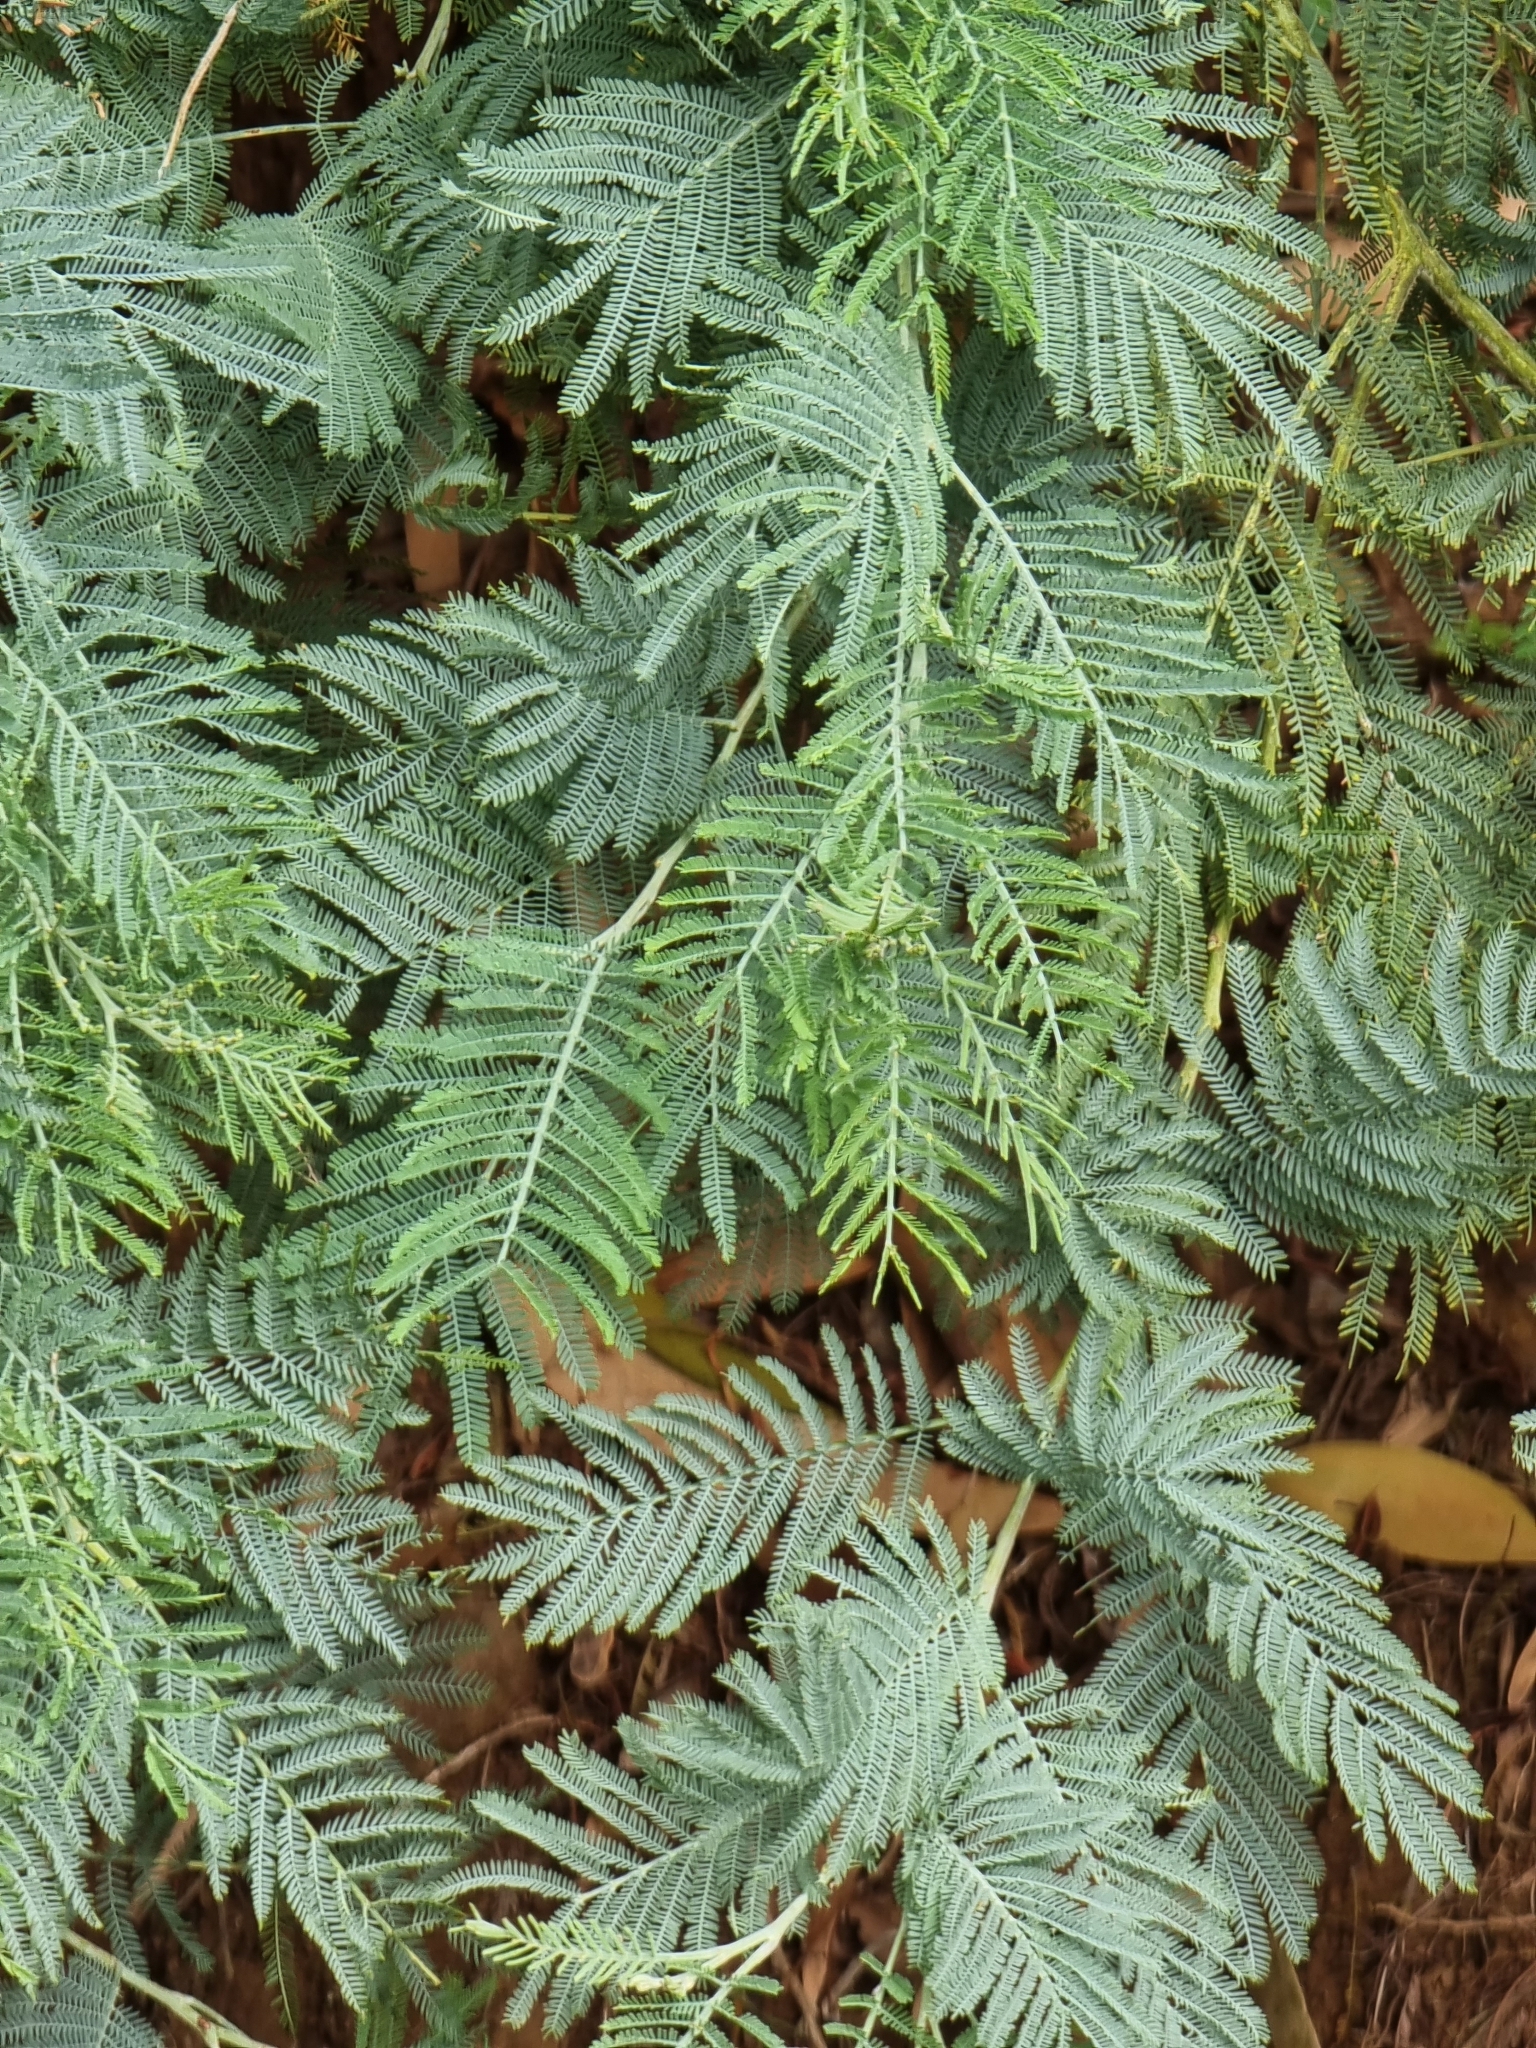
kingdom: Plantae
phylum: Tracheophyta
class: Magnoliopsida
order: Fabales
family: Fabaceae
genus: Acacia
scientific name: Acacia dealbata
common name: Silver wattle
